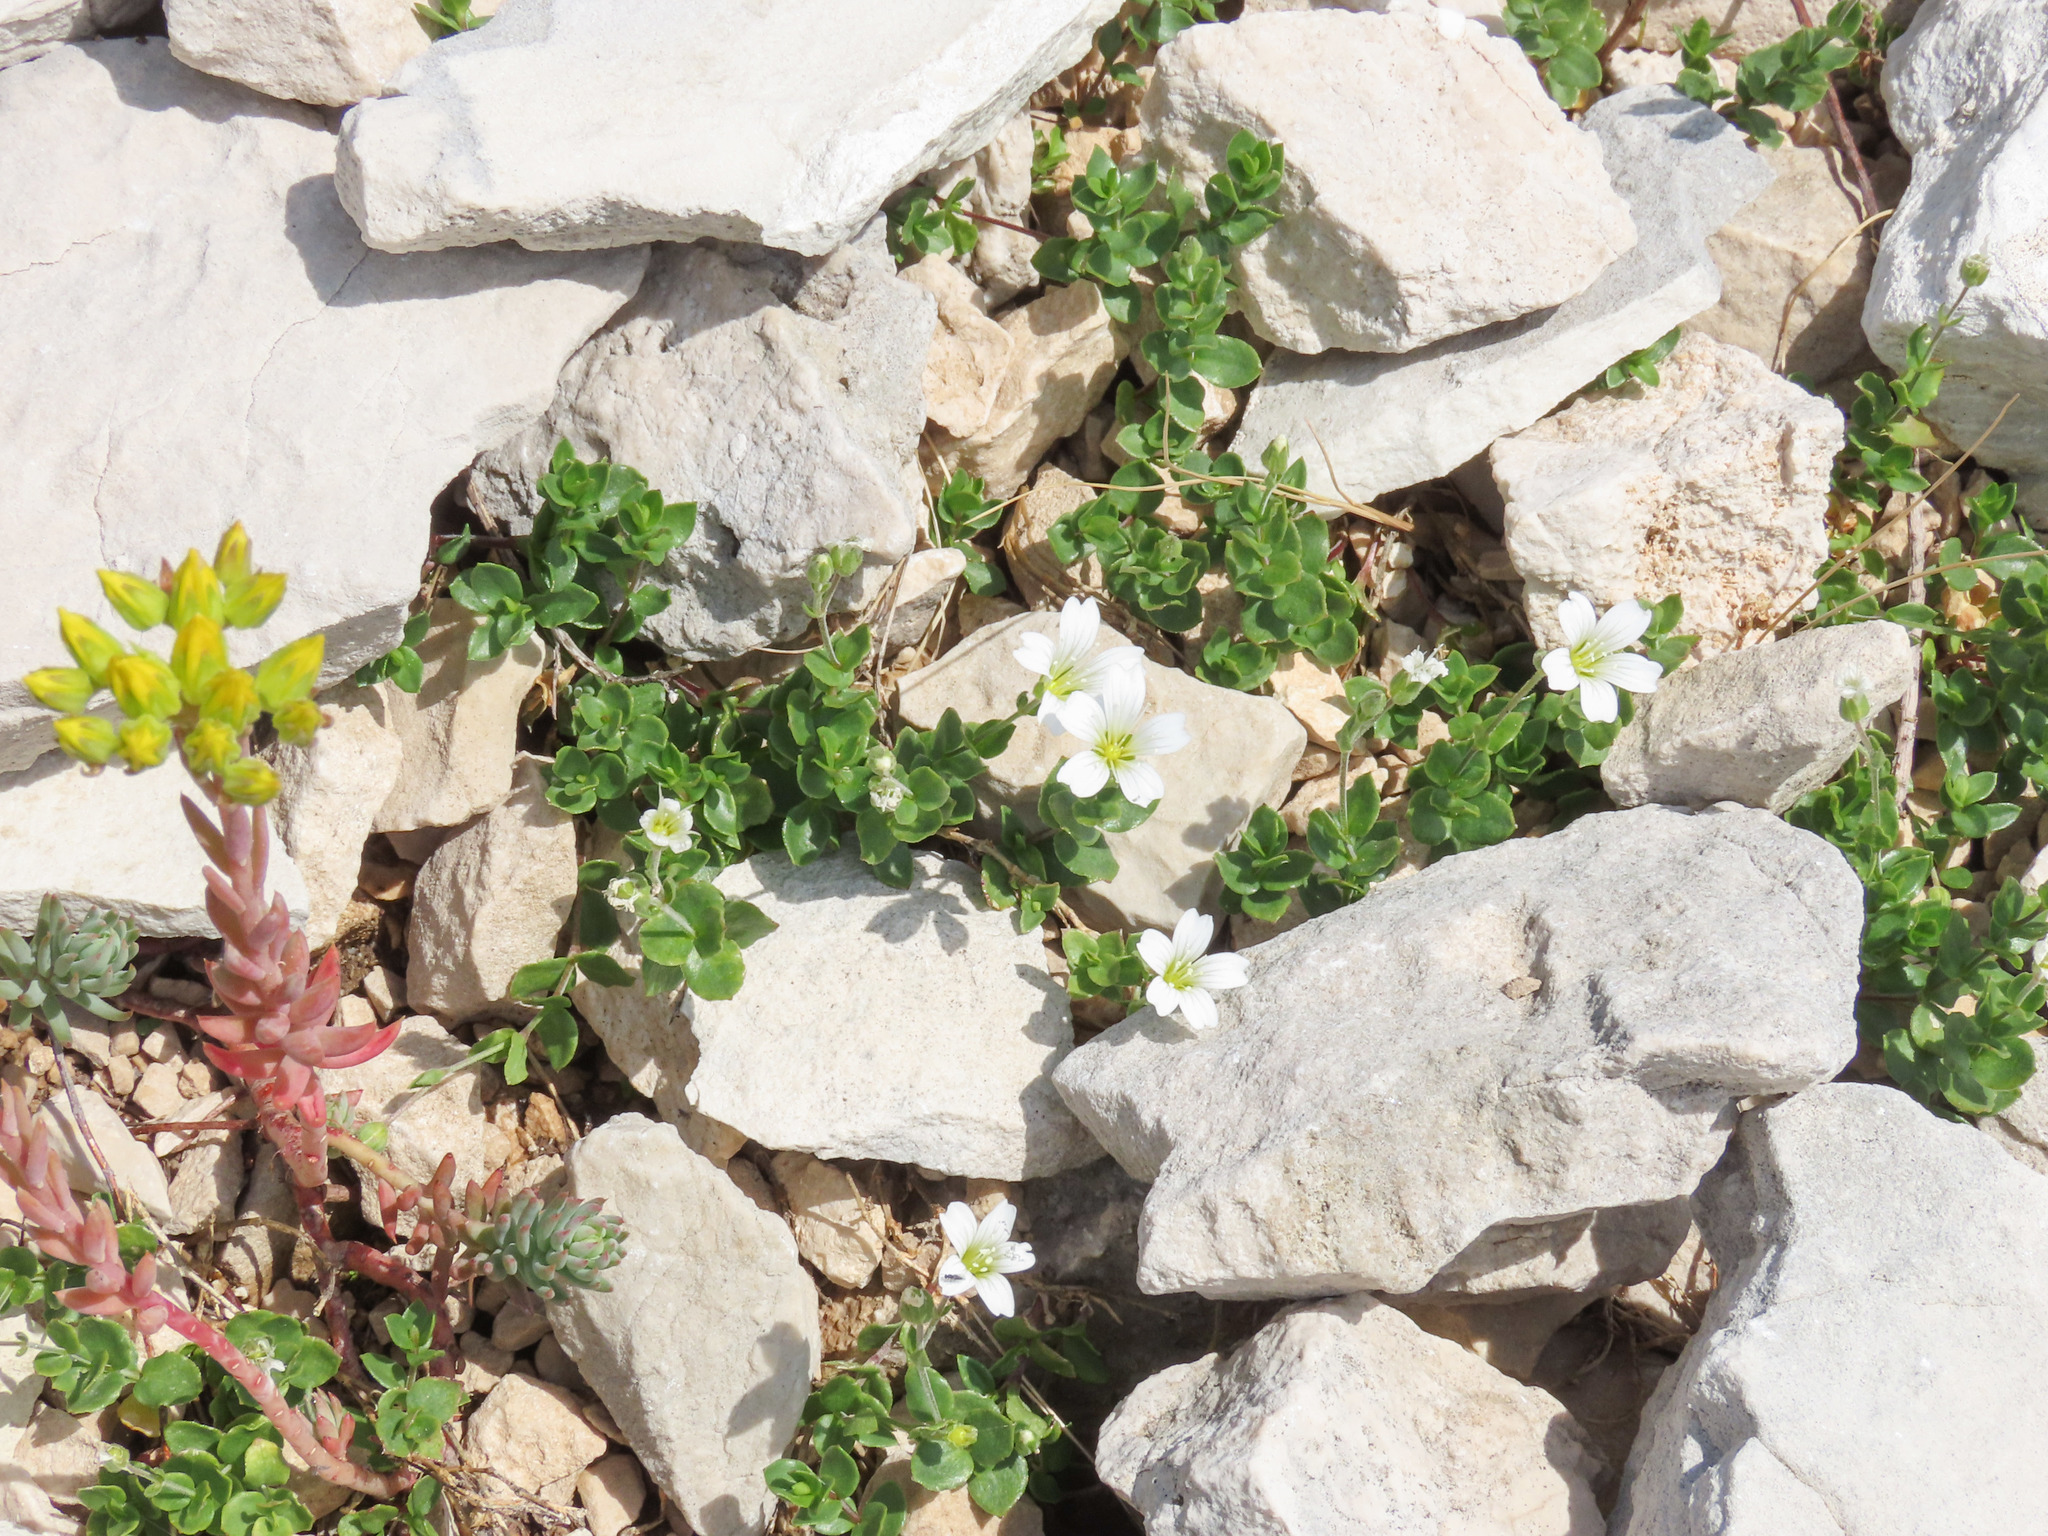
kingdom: Plantae
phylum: Tracheophyta
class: Magnoliopsida
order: Caryophyllales
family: Caryophyllaceae
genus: Arenaria
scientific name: Arenaria bertolonii
